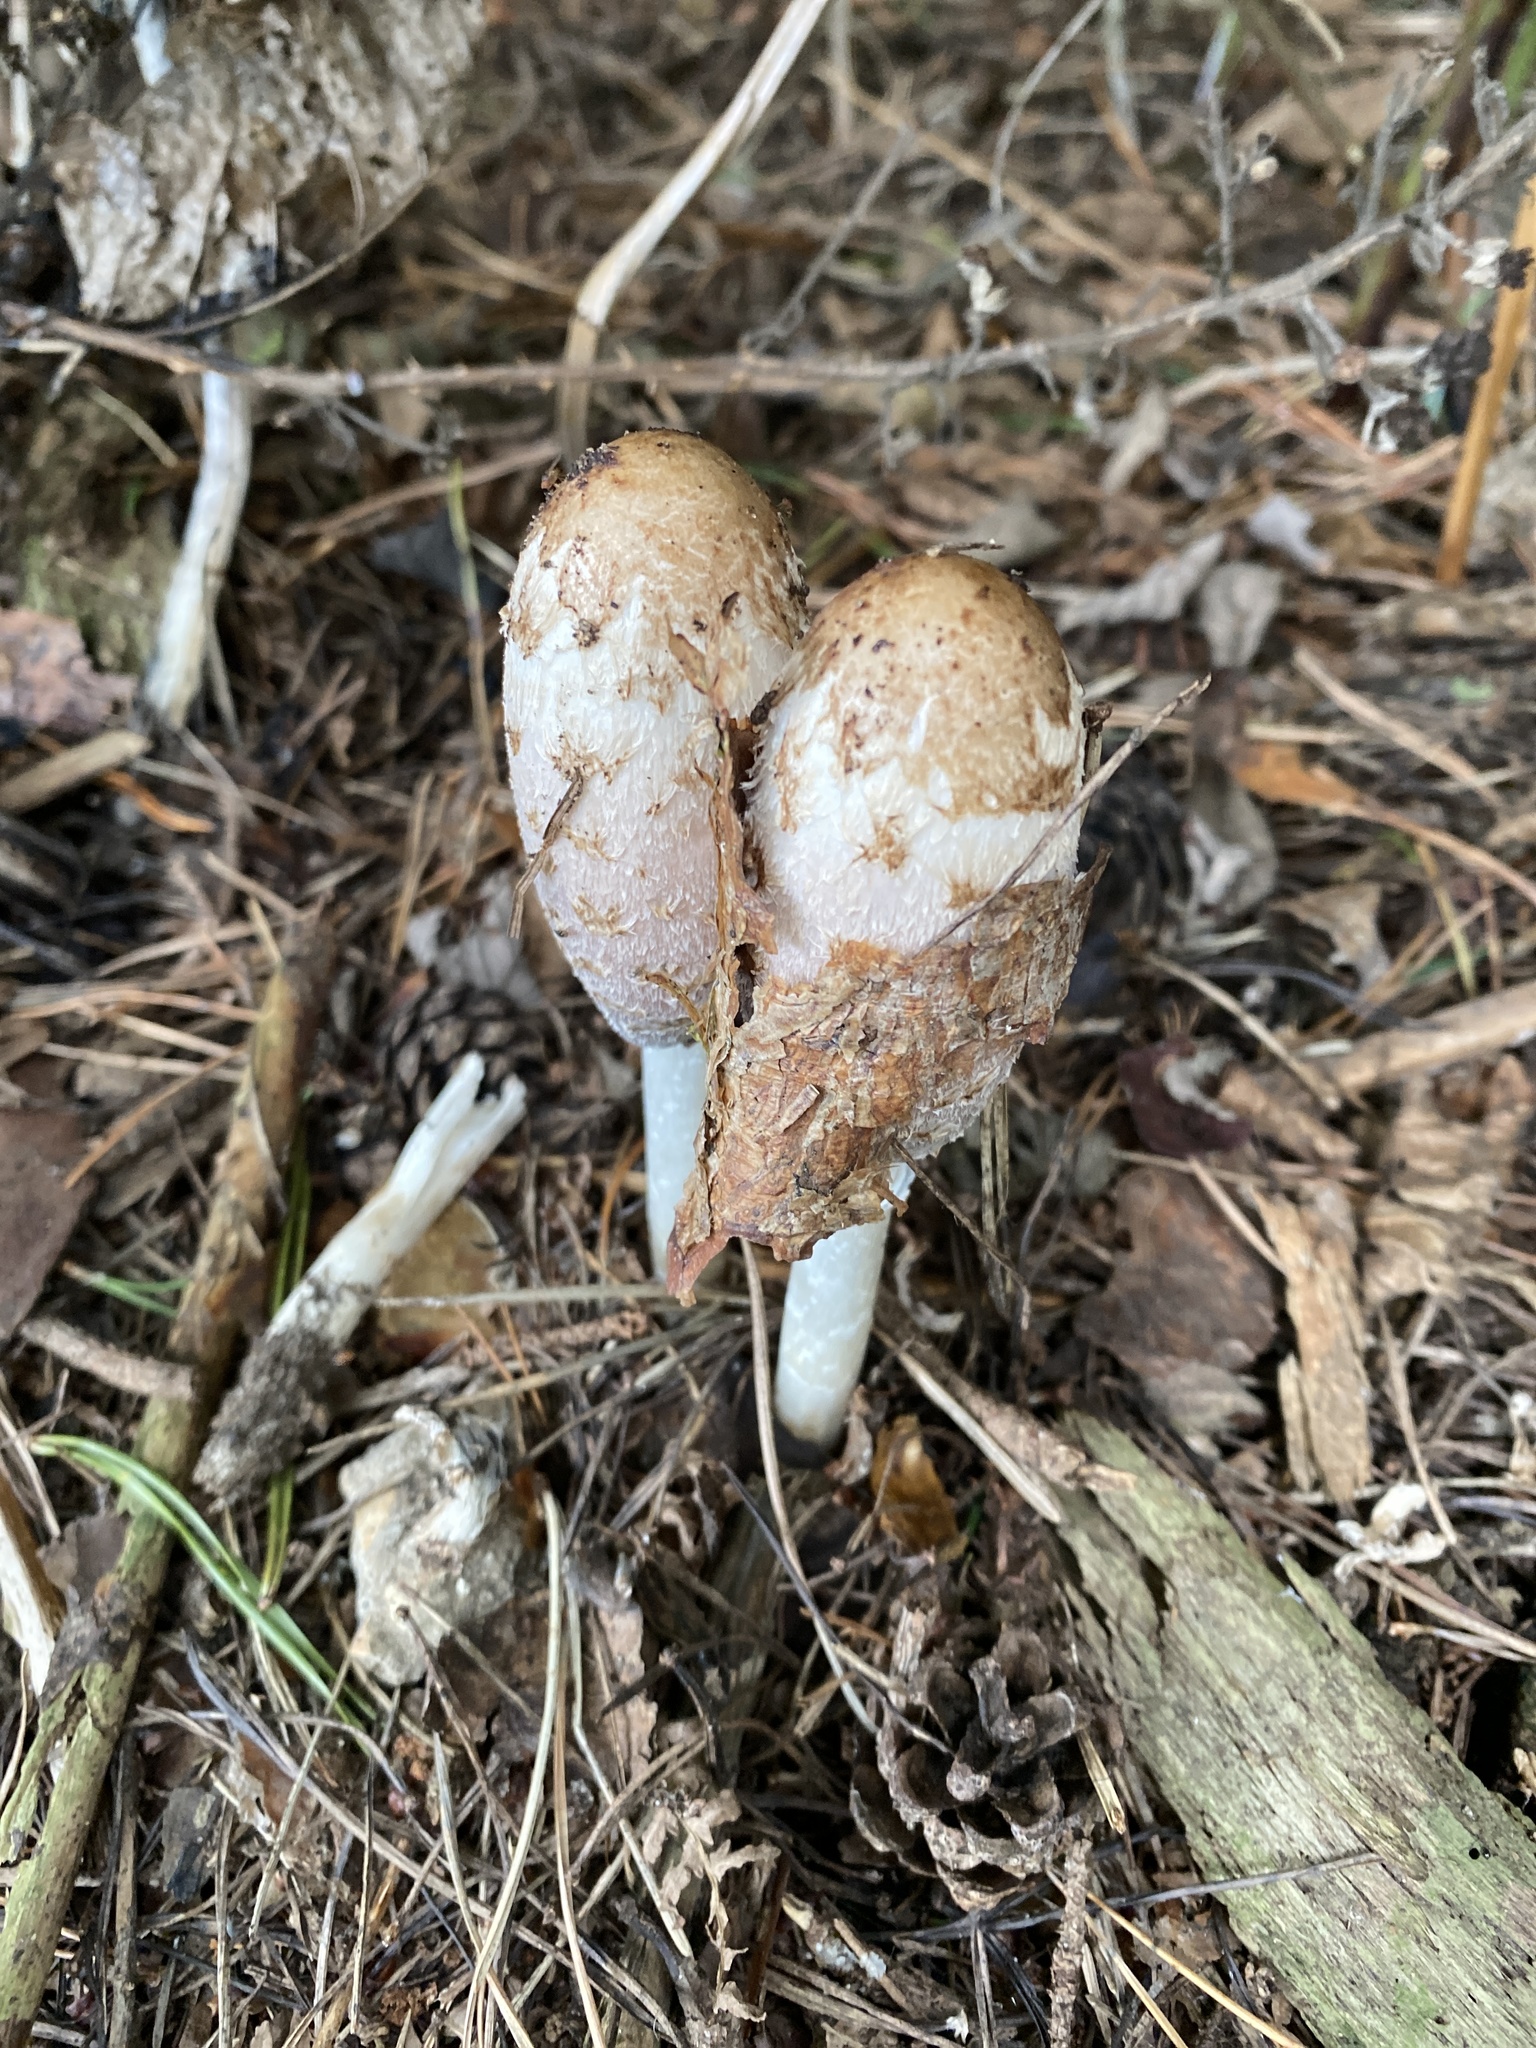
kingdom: Fungi
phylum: Basidiomycota
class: Agaricomycetes
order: Agaricales
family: Agaricaceae
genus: Coprinus
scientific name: Coprinus comatus
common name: Lawyer's wig
